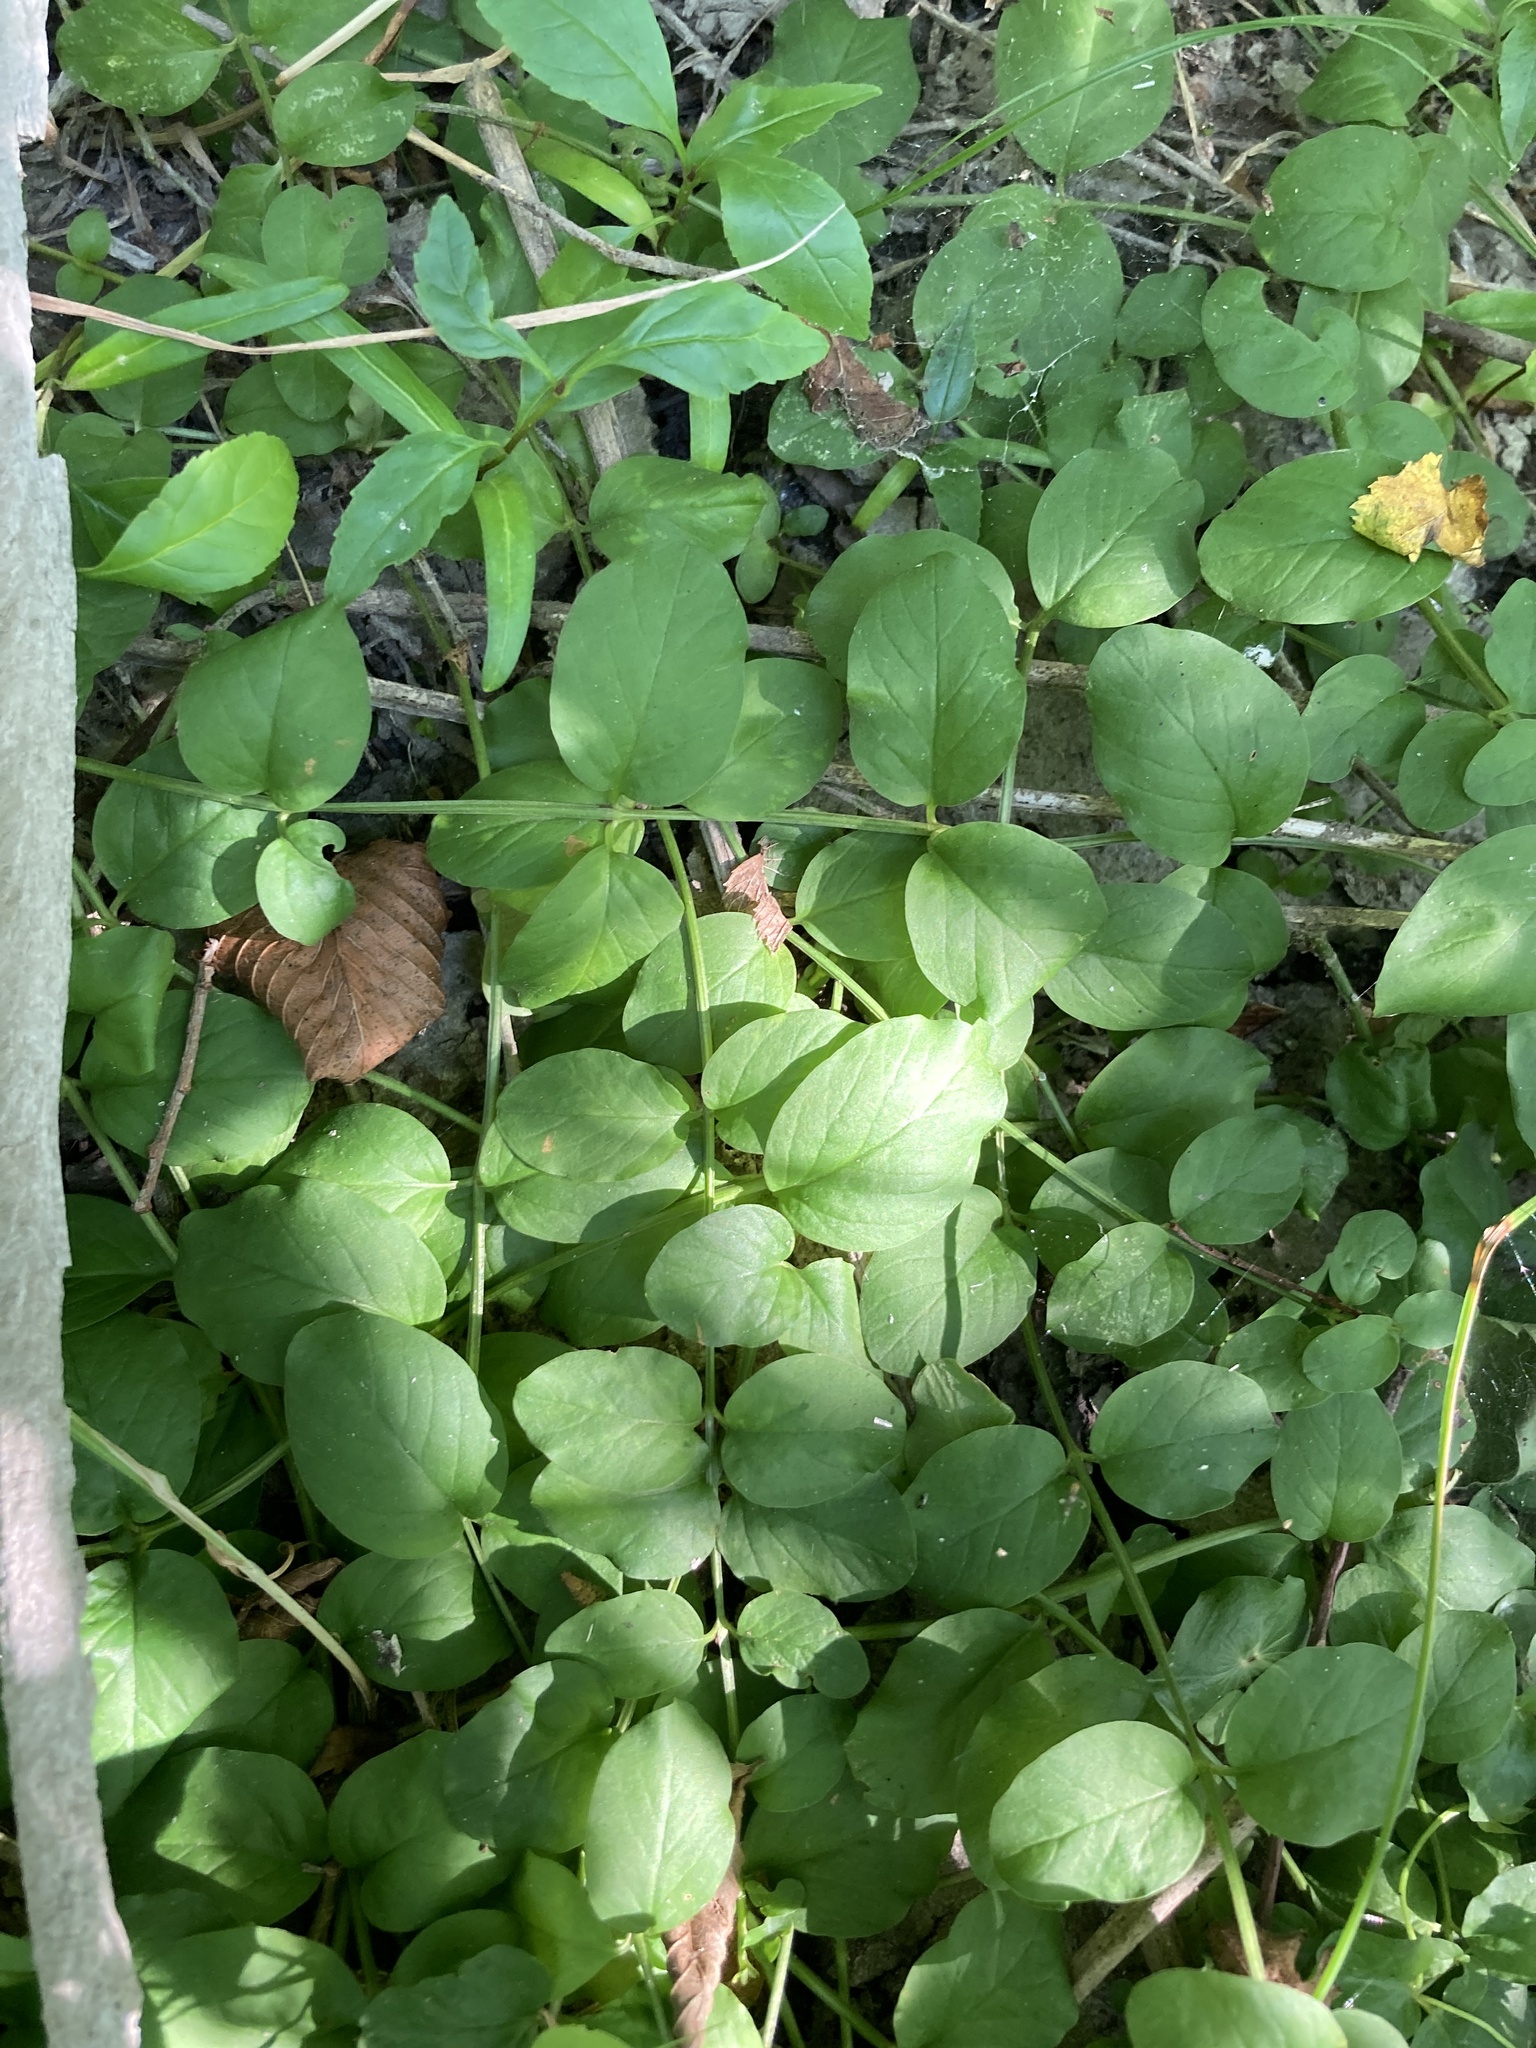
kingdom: Plantae
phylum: Tracheophyta
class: Magnoliopsida
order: Ericales
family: Primulaceae
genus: Lysimachia
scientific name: Lysimachia nummularia
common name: Moneywort
